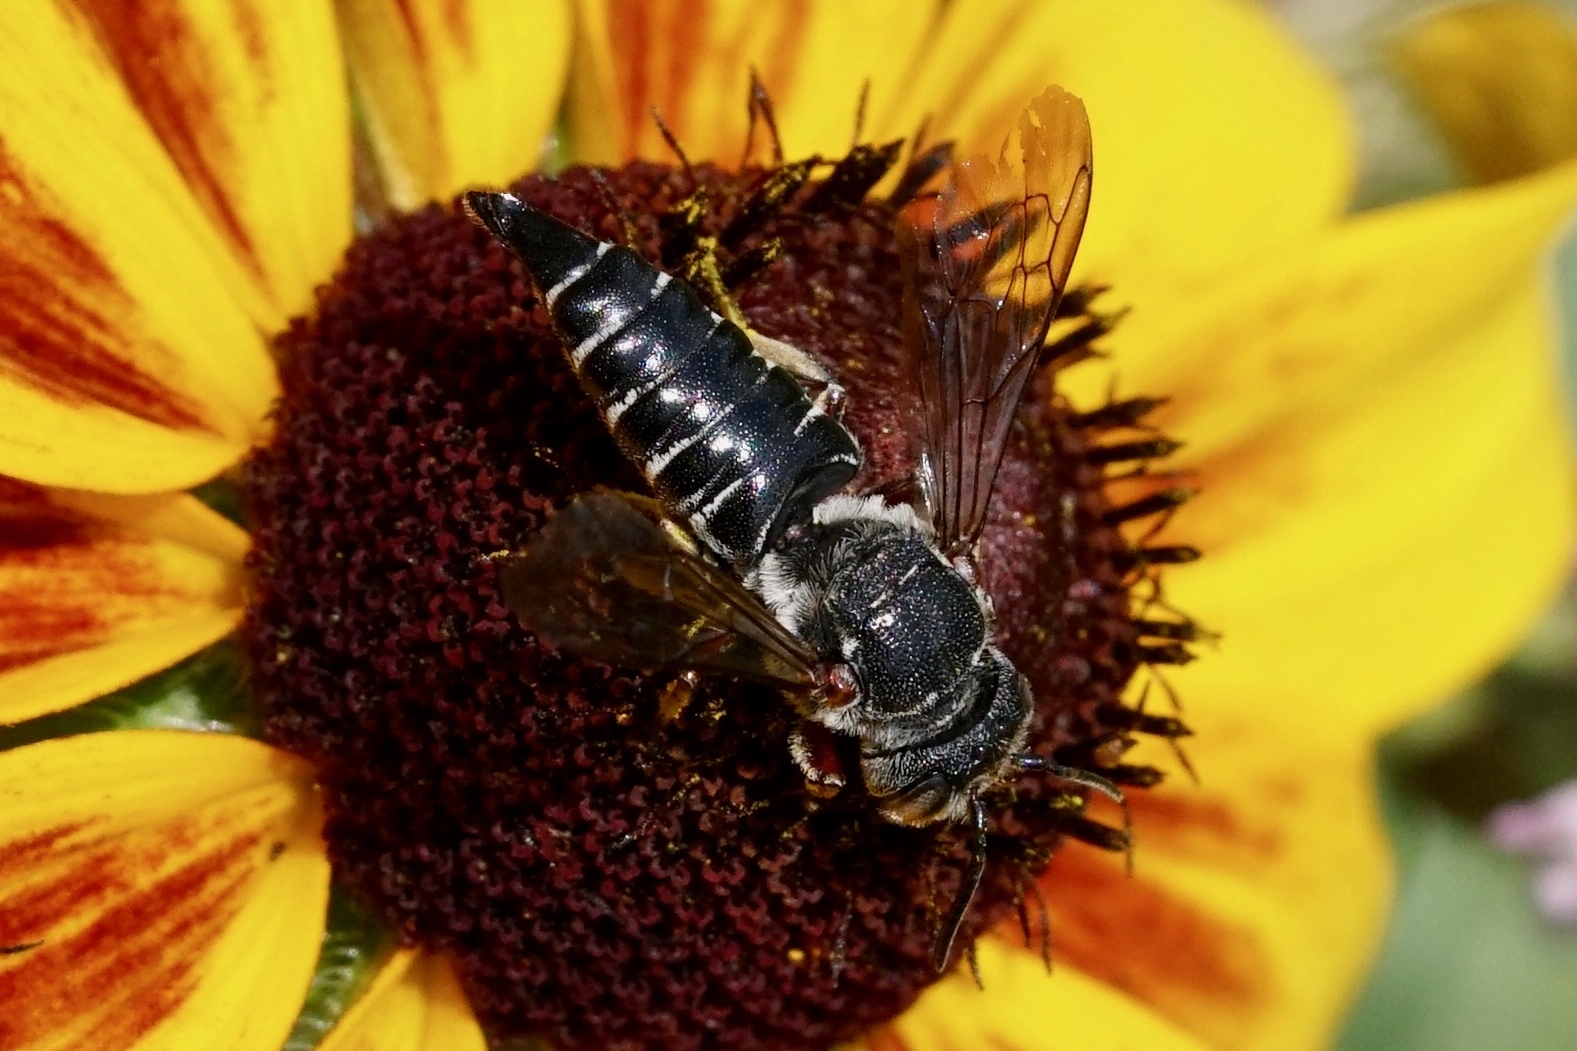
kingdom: Animalia
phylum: Arthropoda
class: Insecta
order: Hymenoptera
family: Megachilidae
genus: Coelioxys
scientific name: Coelioxys modestus
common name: Modest sharptail
